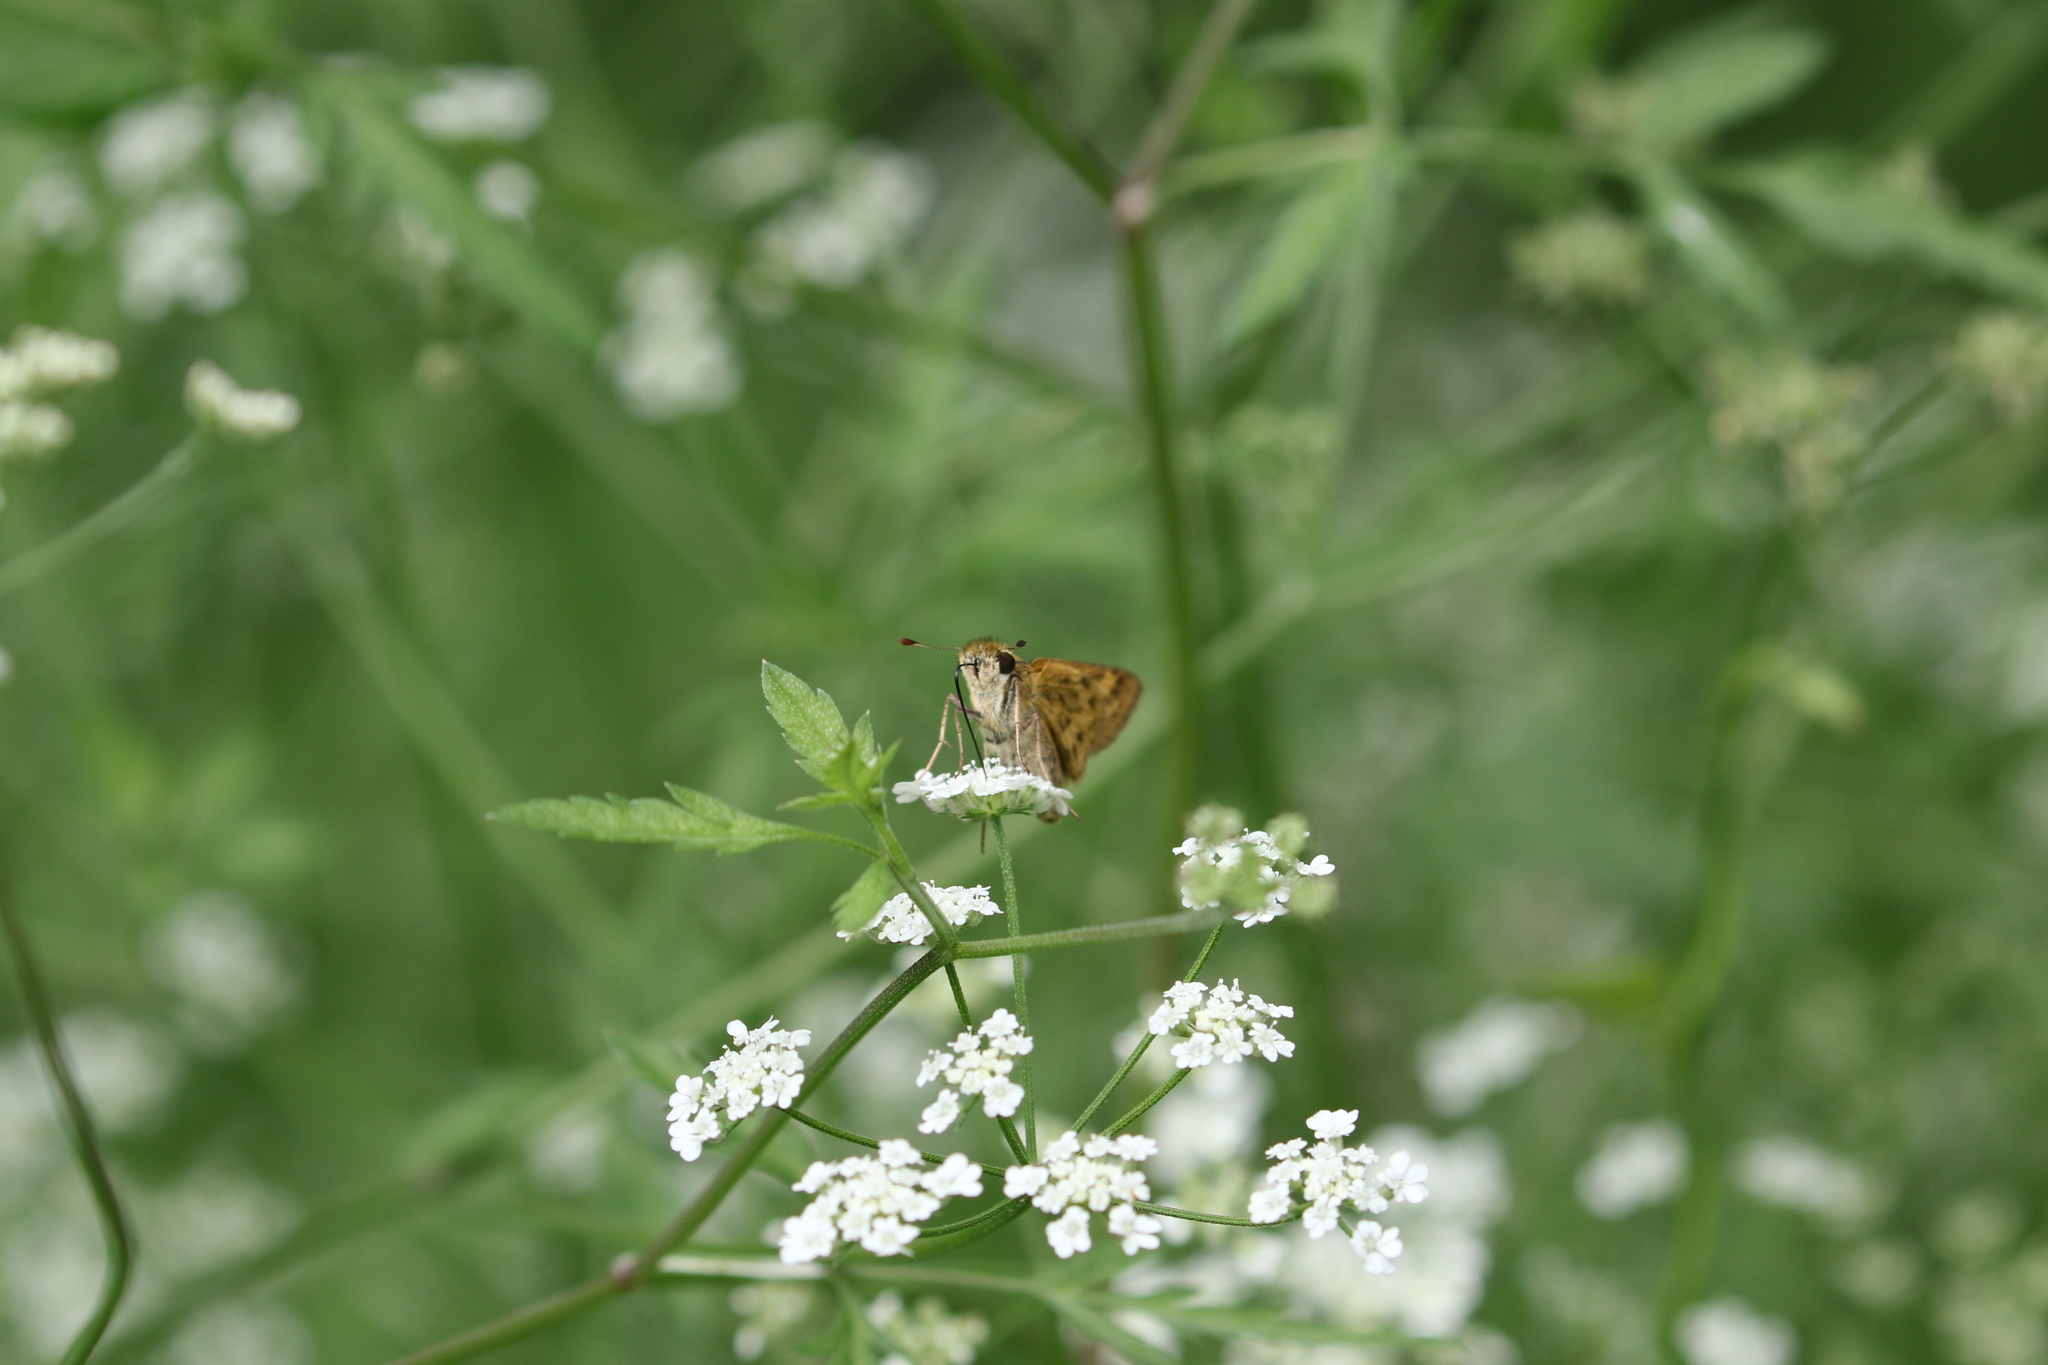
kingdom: Animalia
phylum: Arthropoda
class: Insecta
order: Lepidoptera
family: Hesperiidae
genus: Hylephila
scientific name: Hylephila phyleus
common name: Fiery skipper
